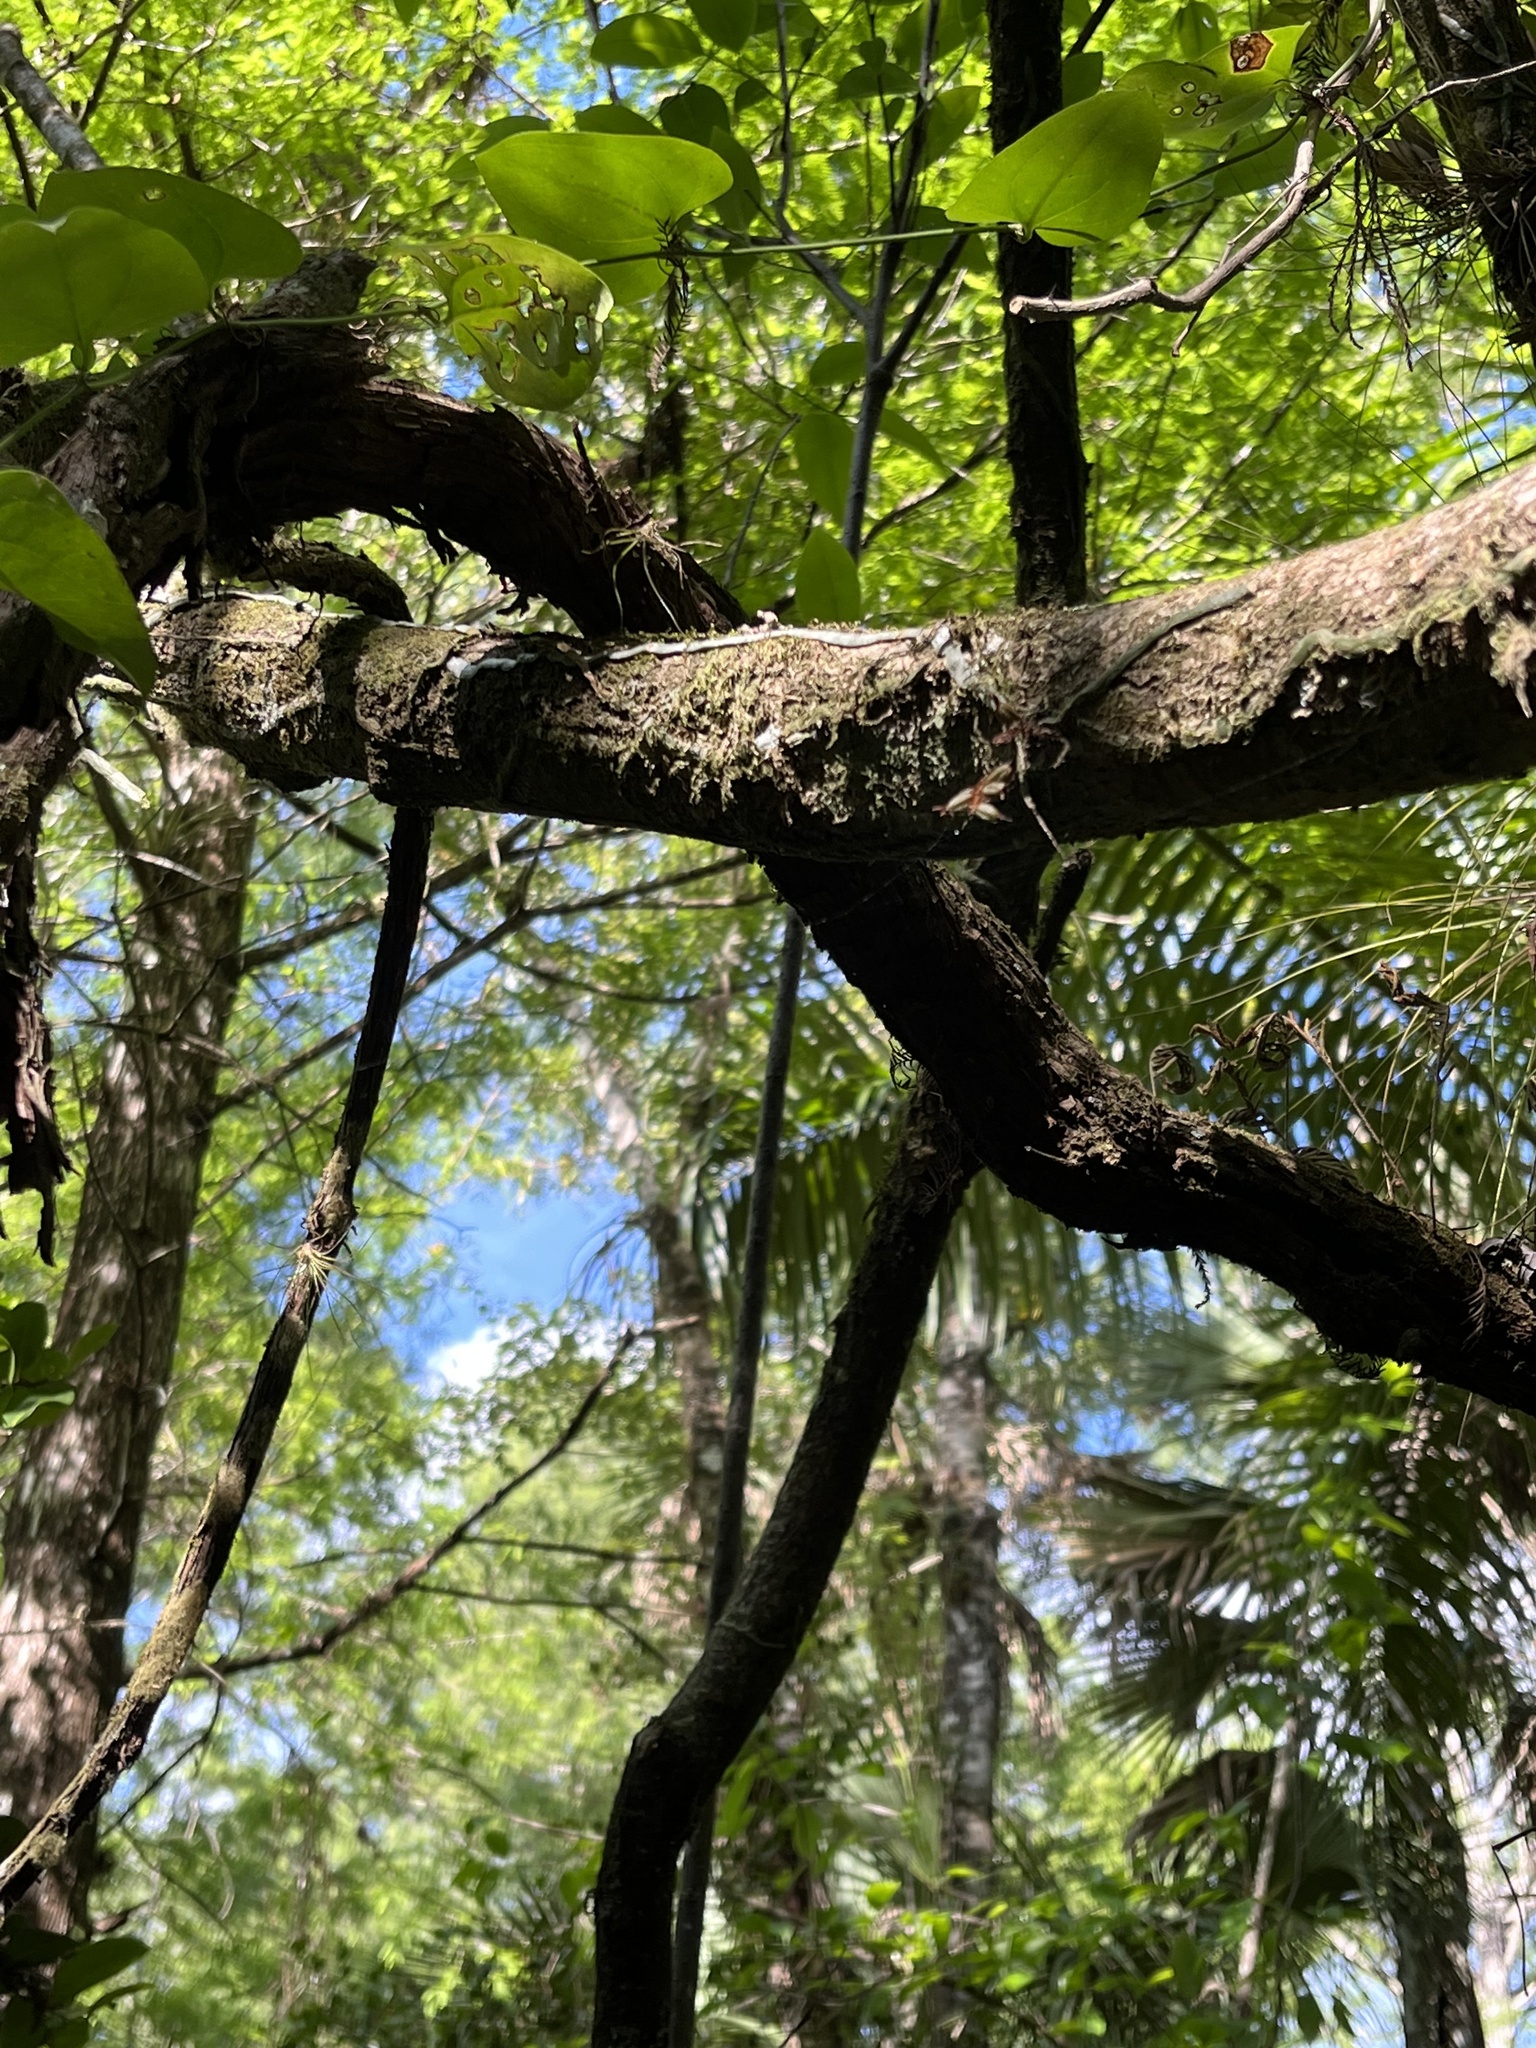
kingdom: Plantae
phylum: Tracheophyta
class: Liliopsida
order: Asparagales
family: Orchidaceae
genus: Campylocentrum
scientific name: Campylocentrum pachyrrhizum
